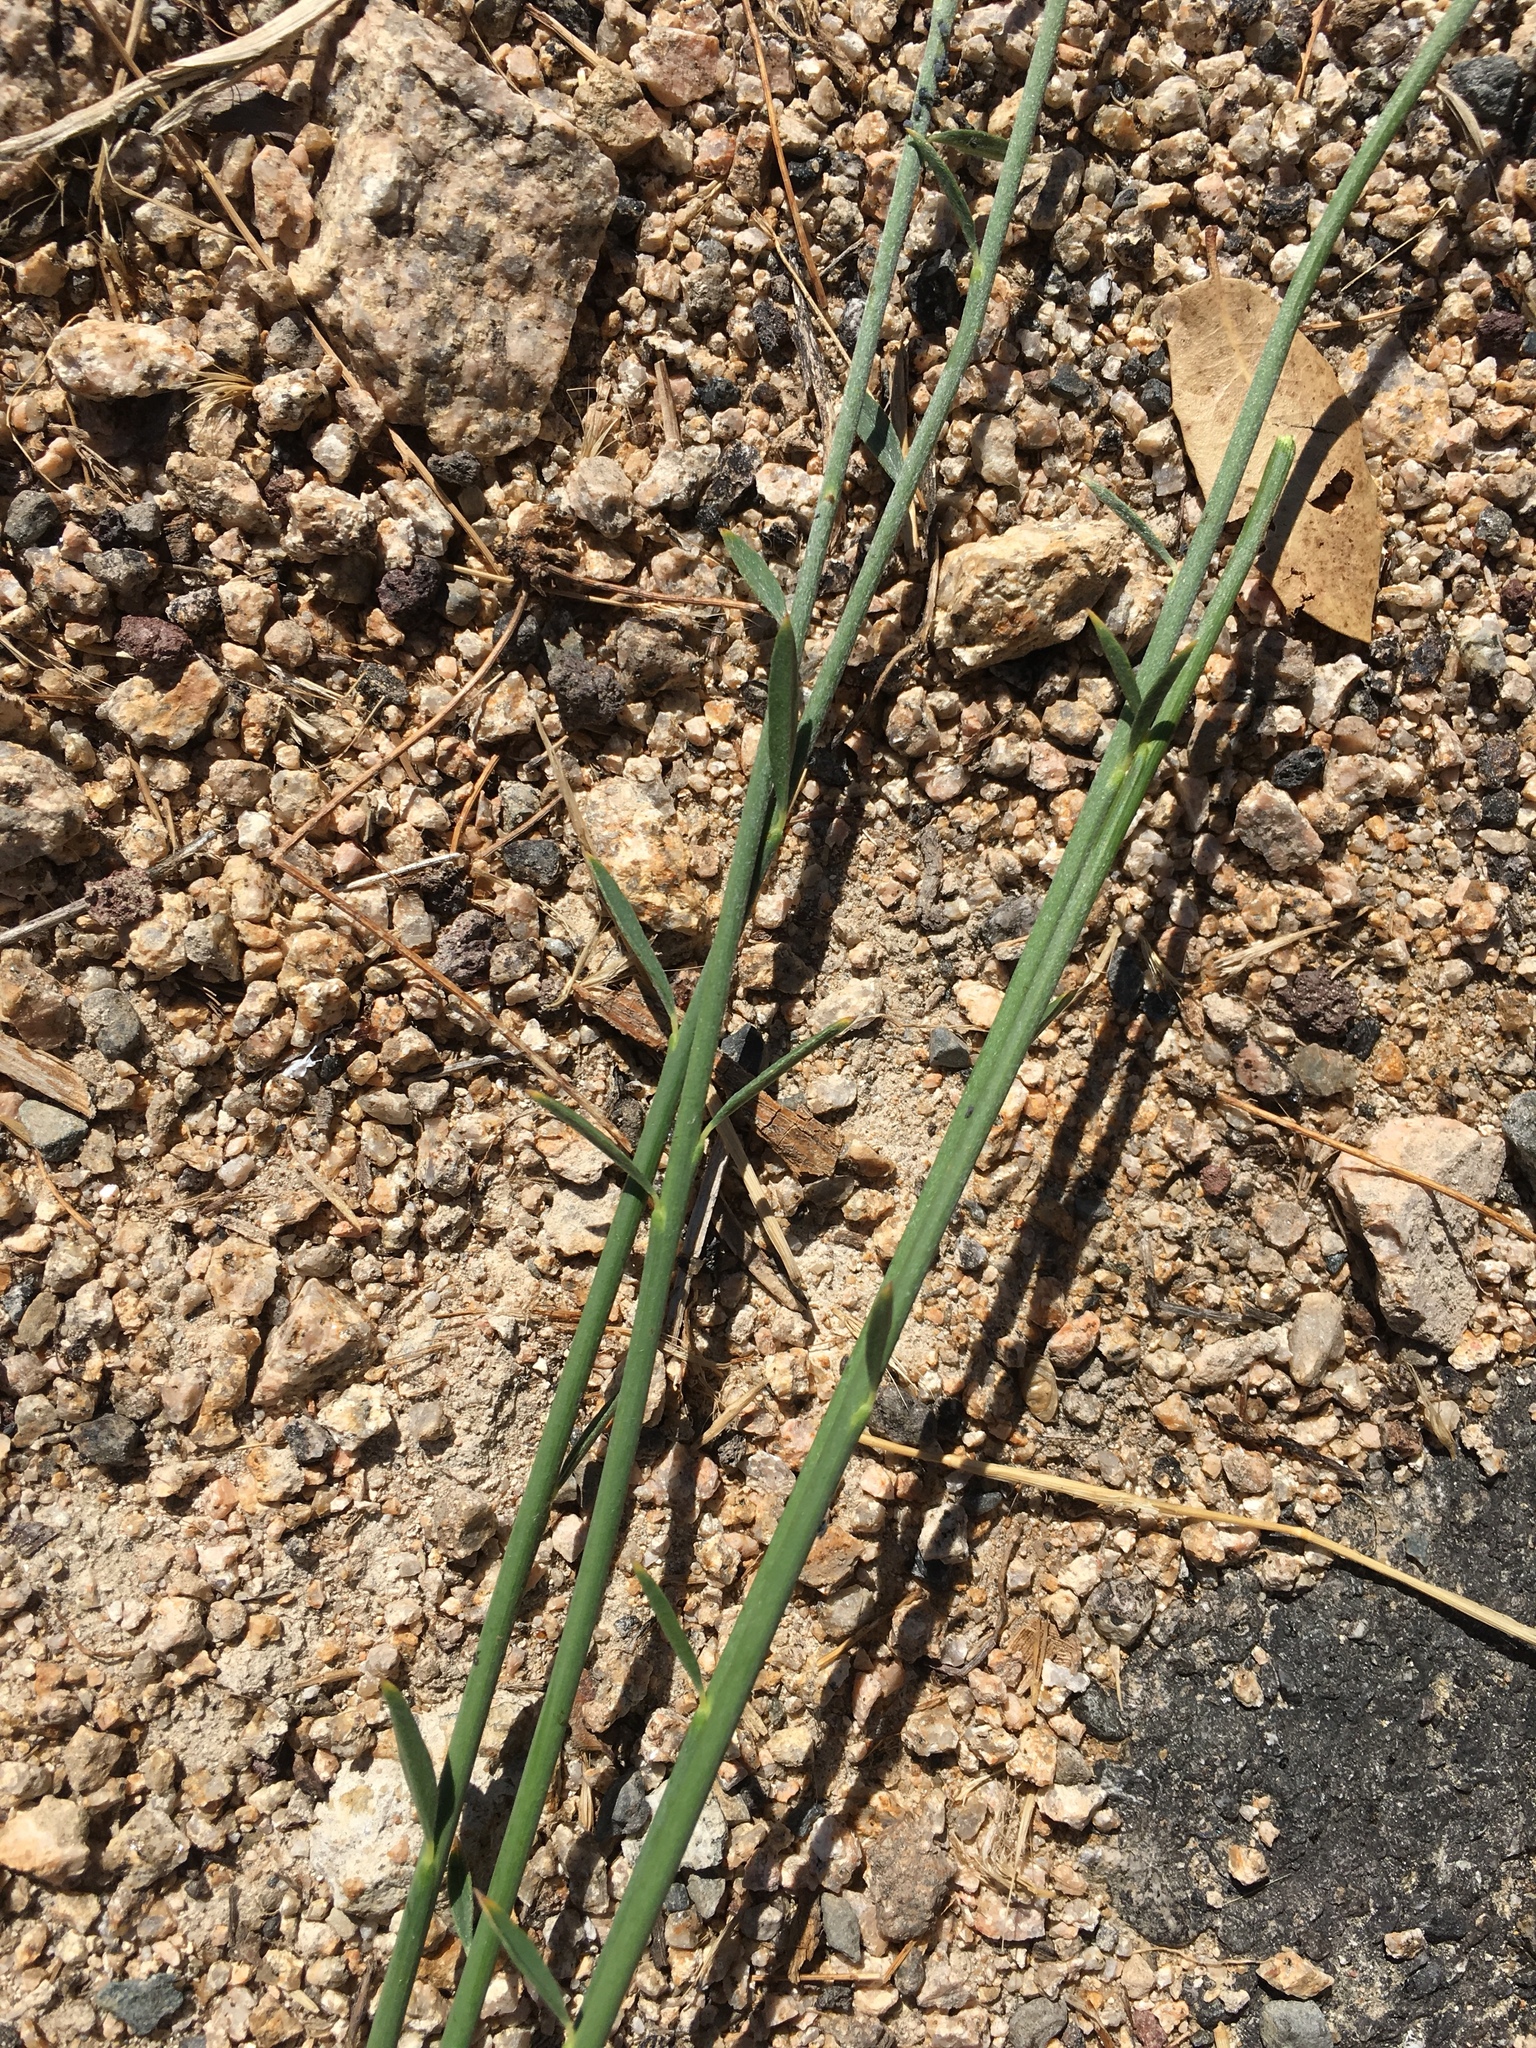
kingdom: Plantae
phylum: Tracheophyta
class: Magnoliopsida
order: Fabales
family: Fabaceae
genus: Spartium
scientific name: Spartium junceum
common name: Spanish broom
